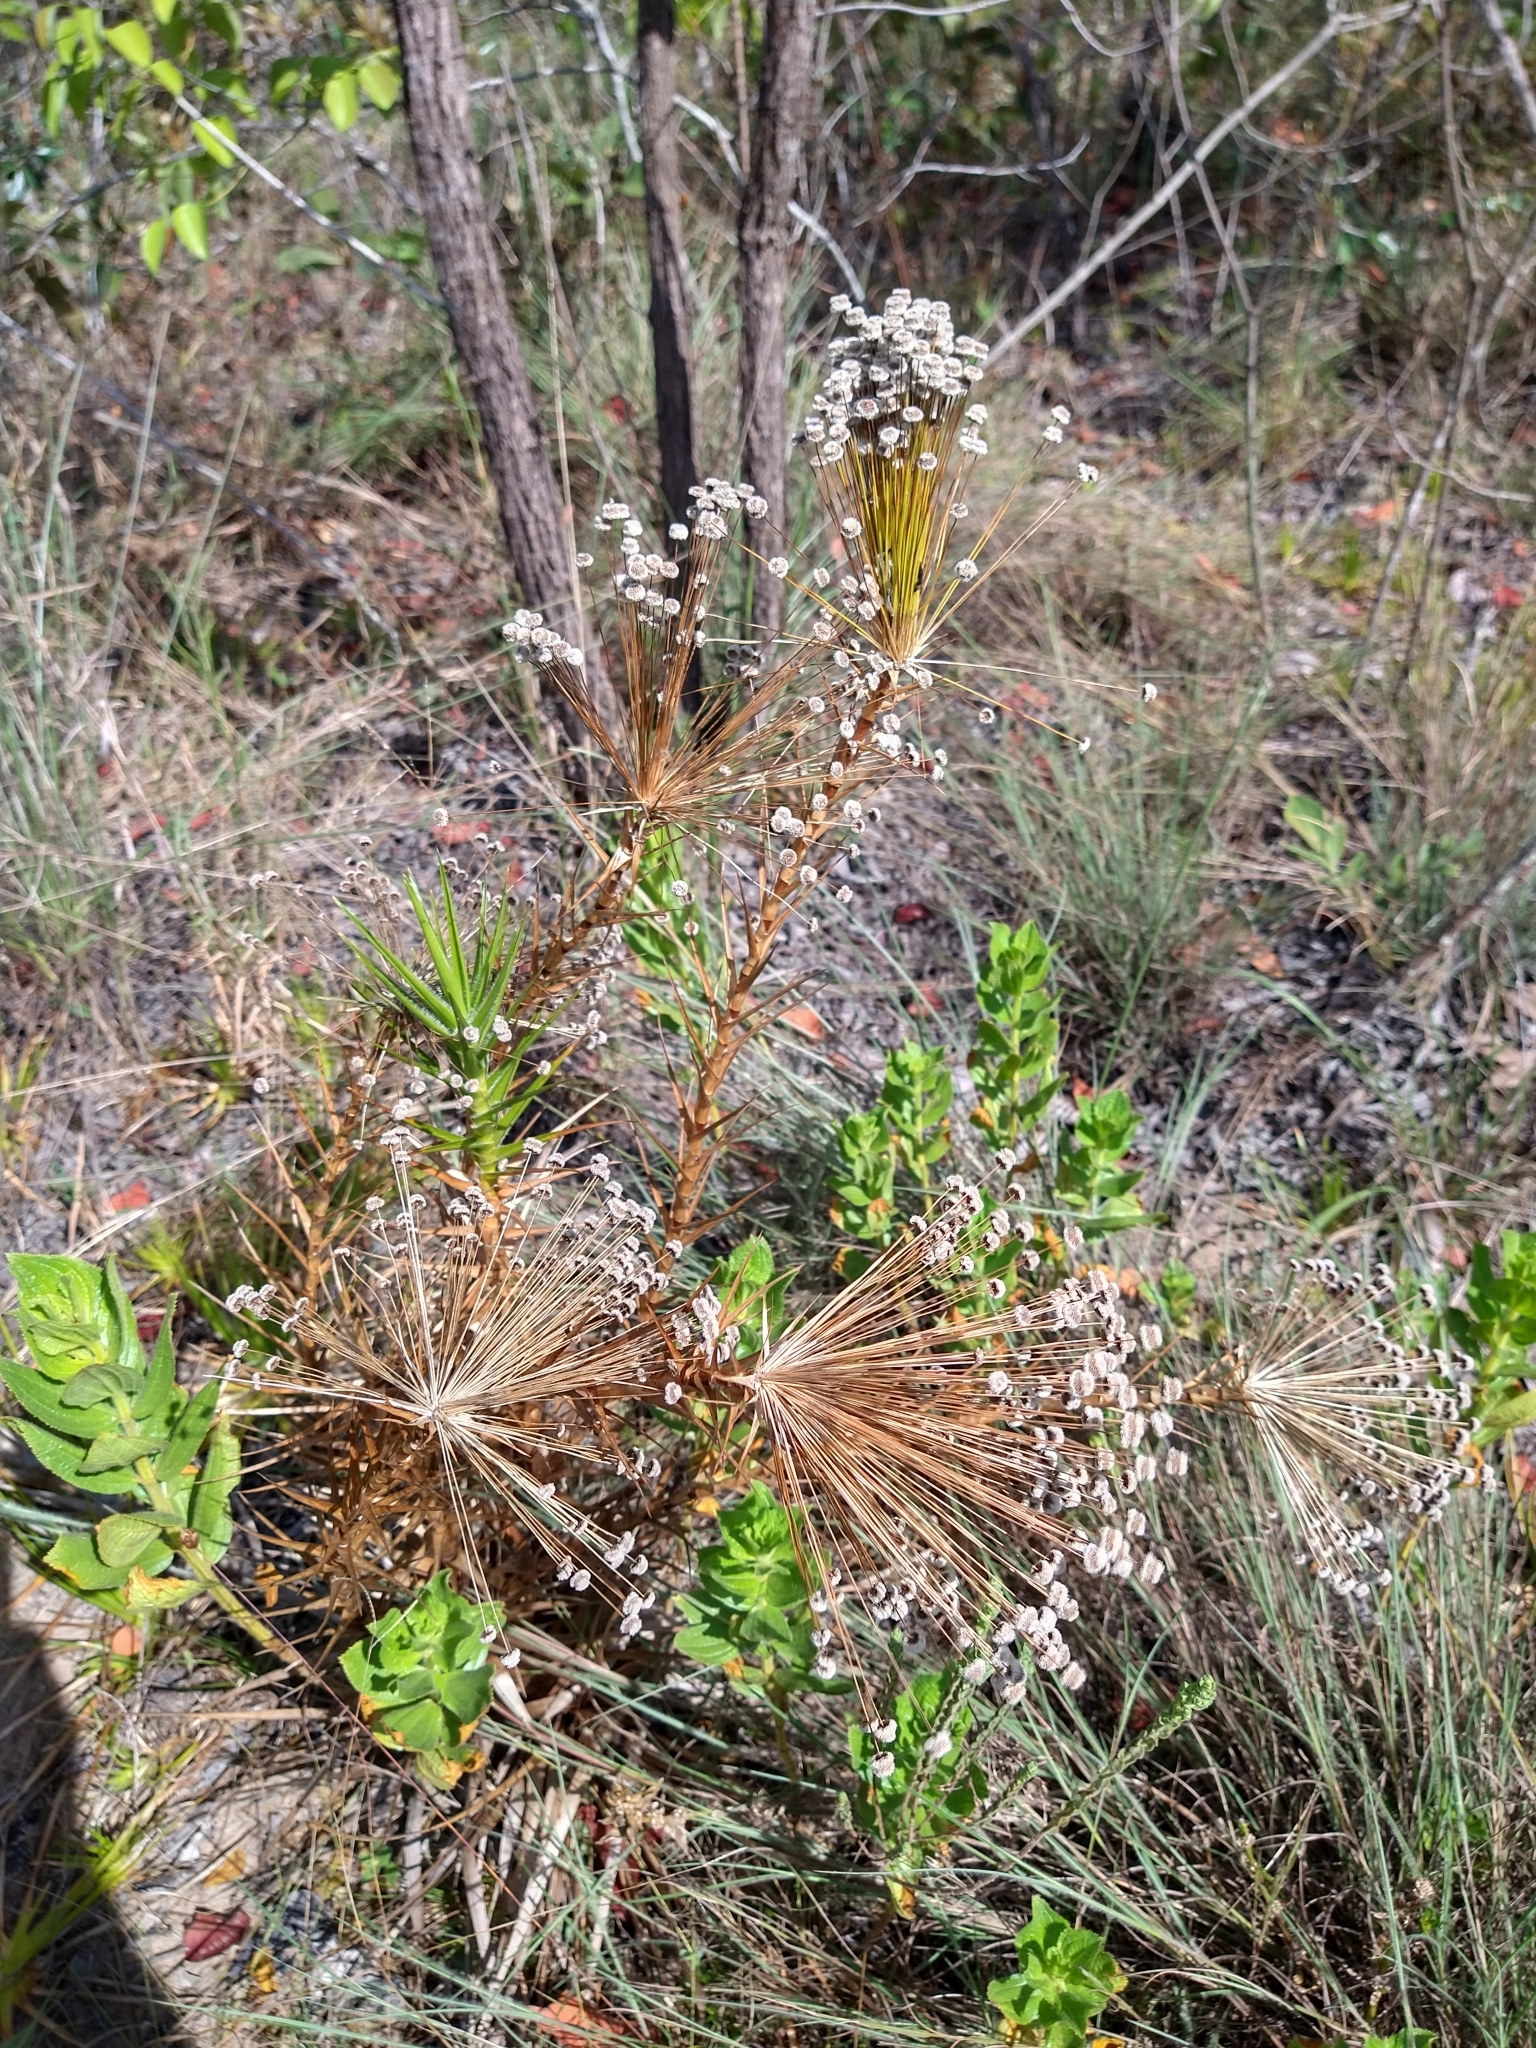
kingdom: Plantae
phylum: Tracheophyta
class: Liliopsida
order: Poales
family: Eriocaulaceae
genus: Paepalanthus
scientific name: Paepalanthus polyanthus
